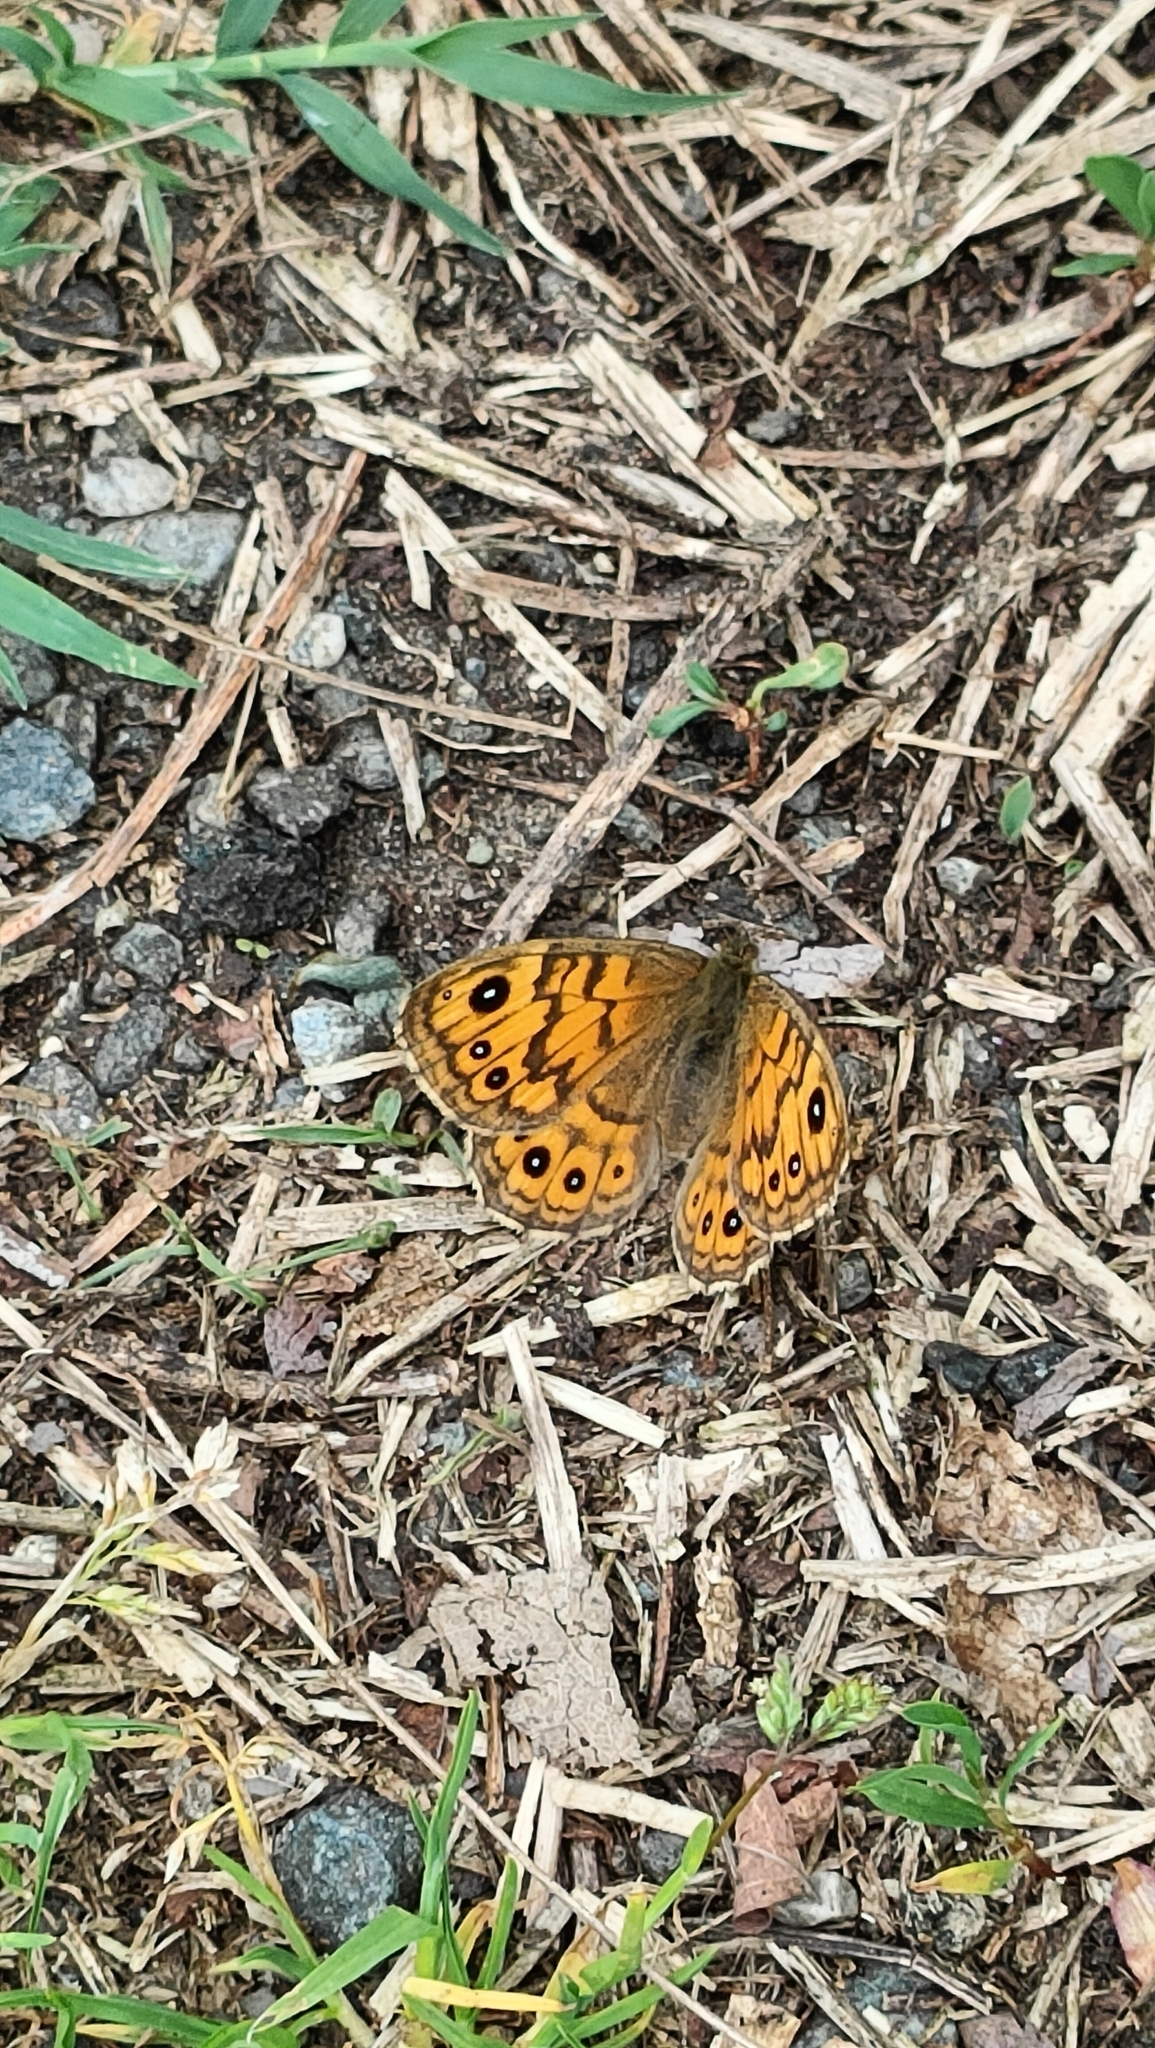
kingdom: Animalia
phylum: Arthropoda
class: Insecta
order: Lepidoptera
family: Nymphalidae
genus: Pararge
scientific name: Pararge Lasiommata megera
